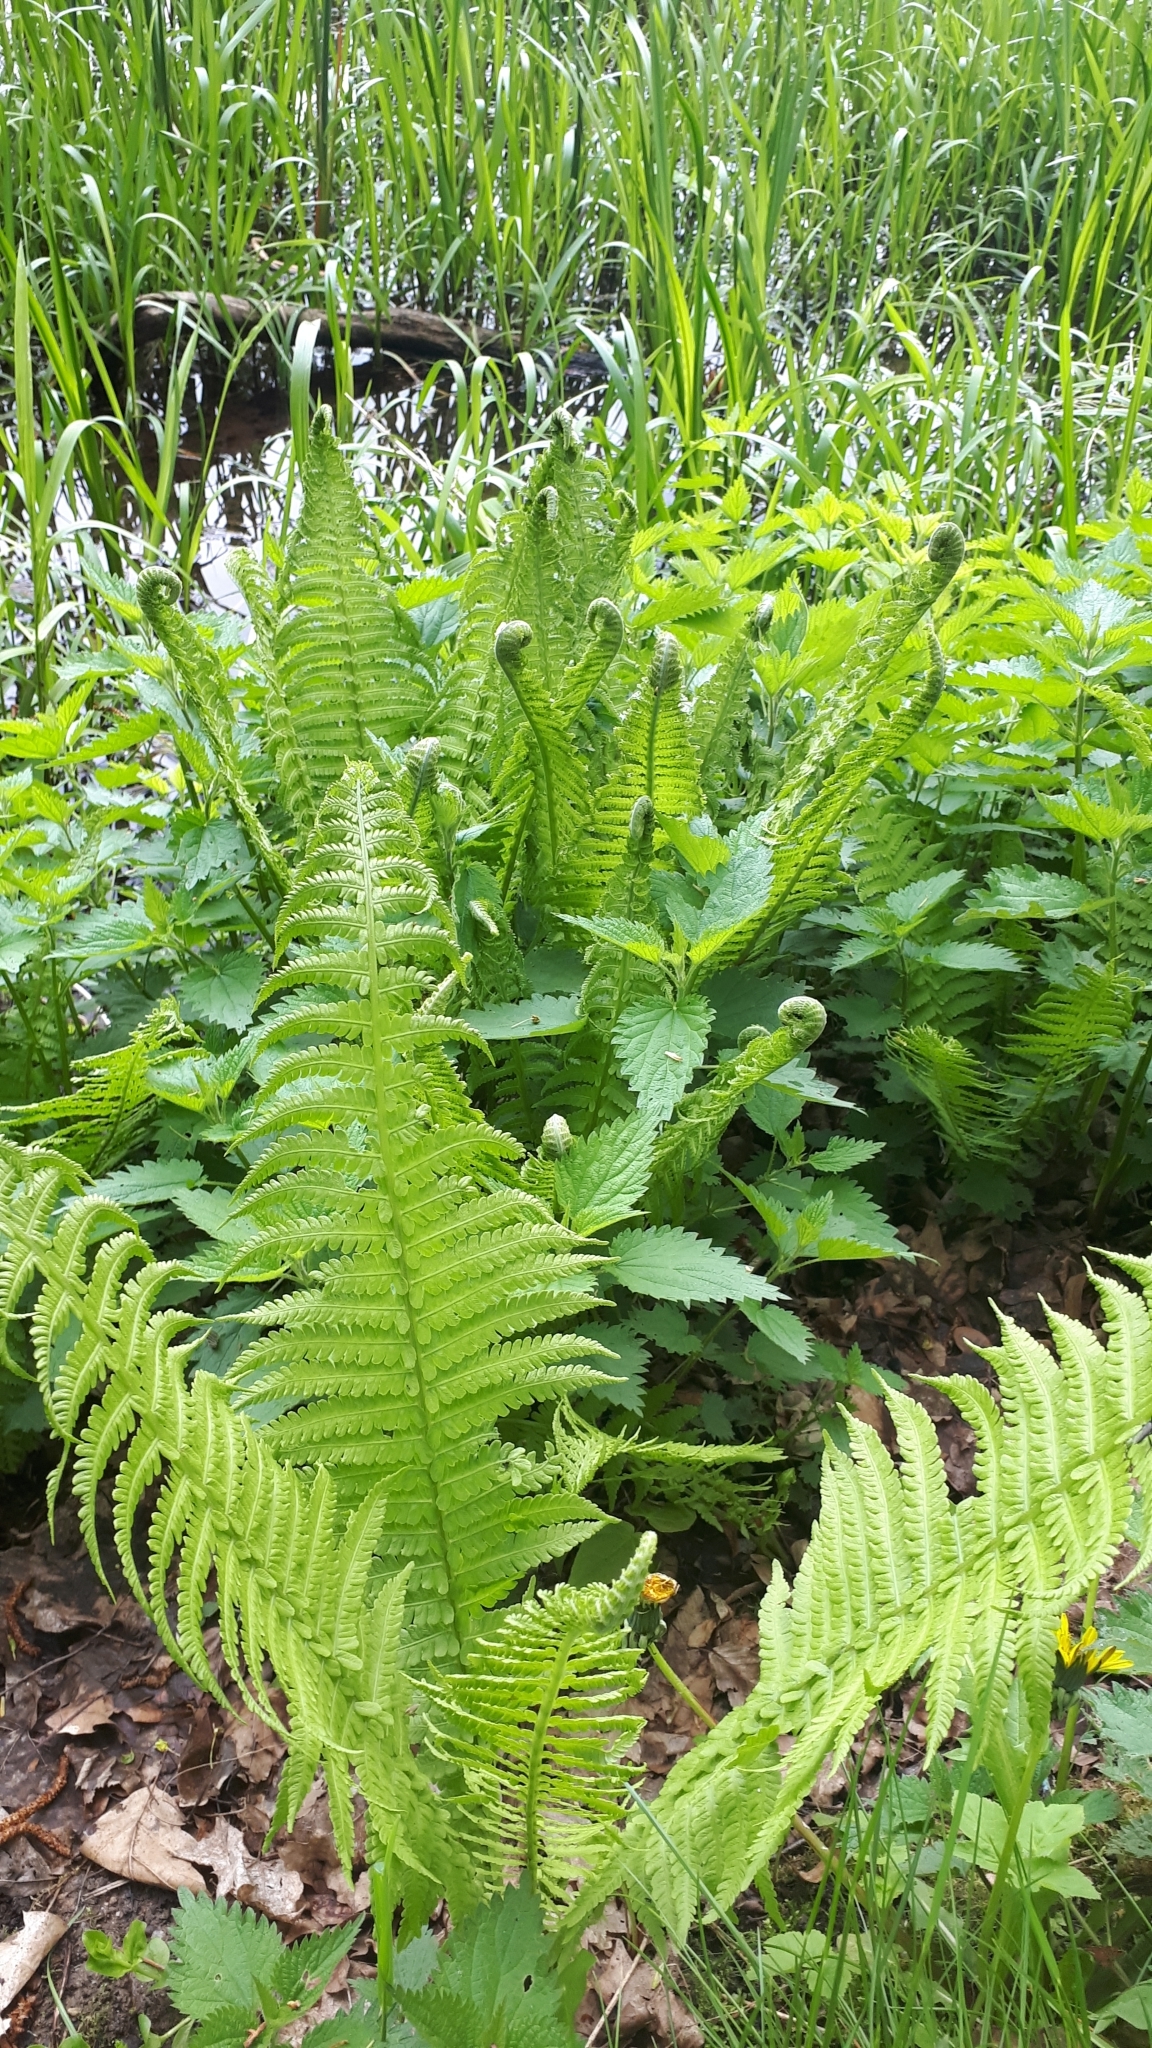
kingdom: Plantae
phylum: Tracheophyta
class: Polypodiopsida
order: Polypodiales
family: Onocleaceae
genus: Matteuccia
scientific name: Matteuccia struthiopteris
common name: Ostrich fern
